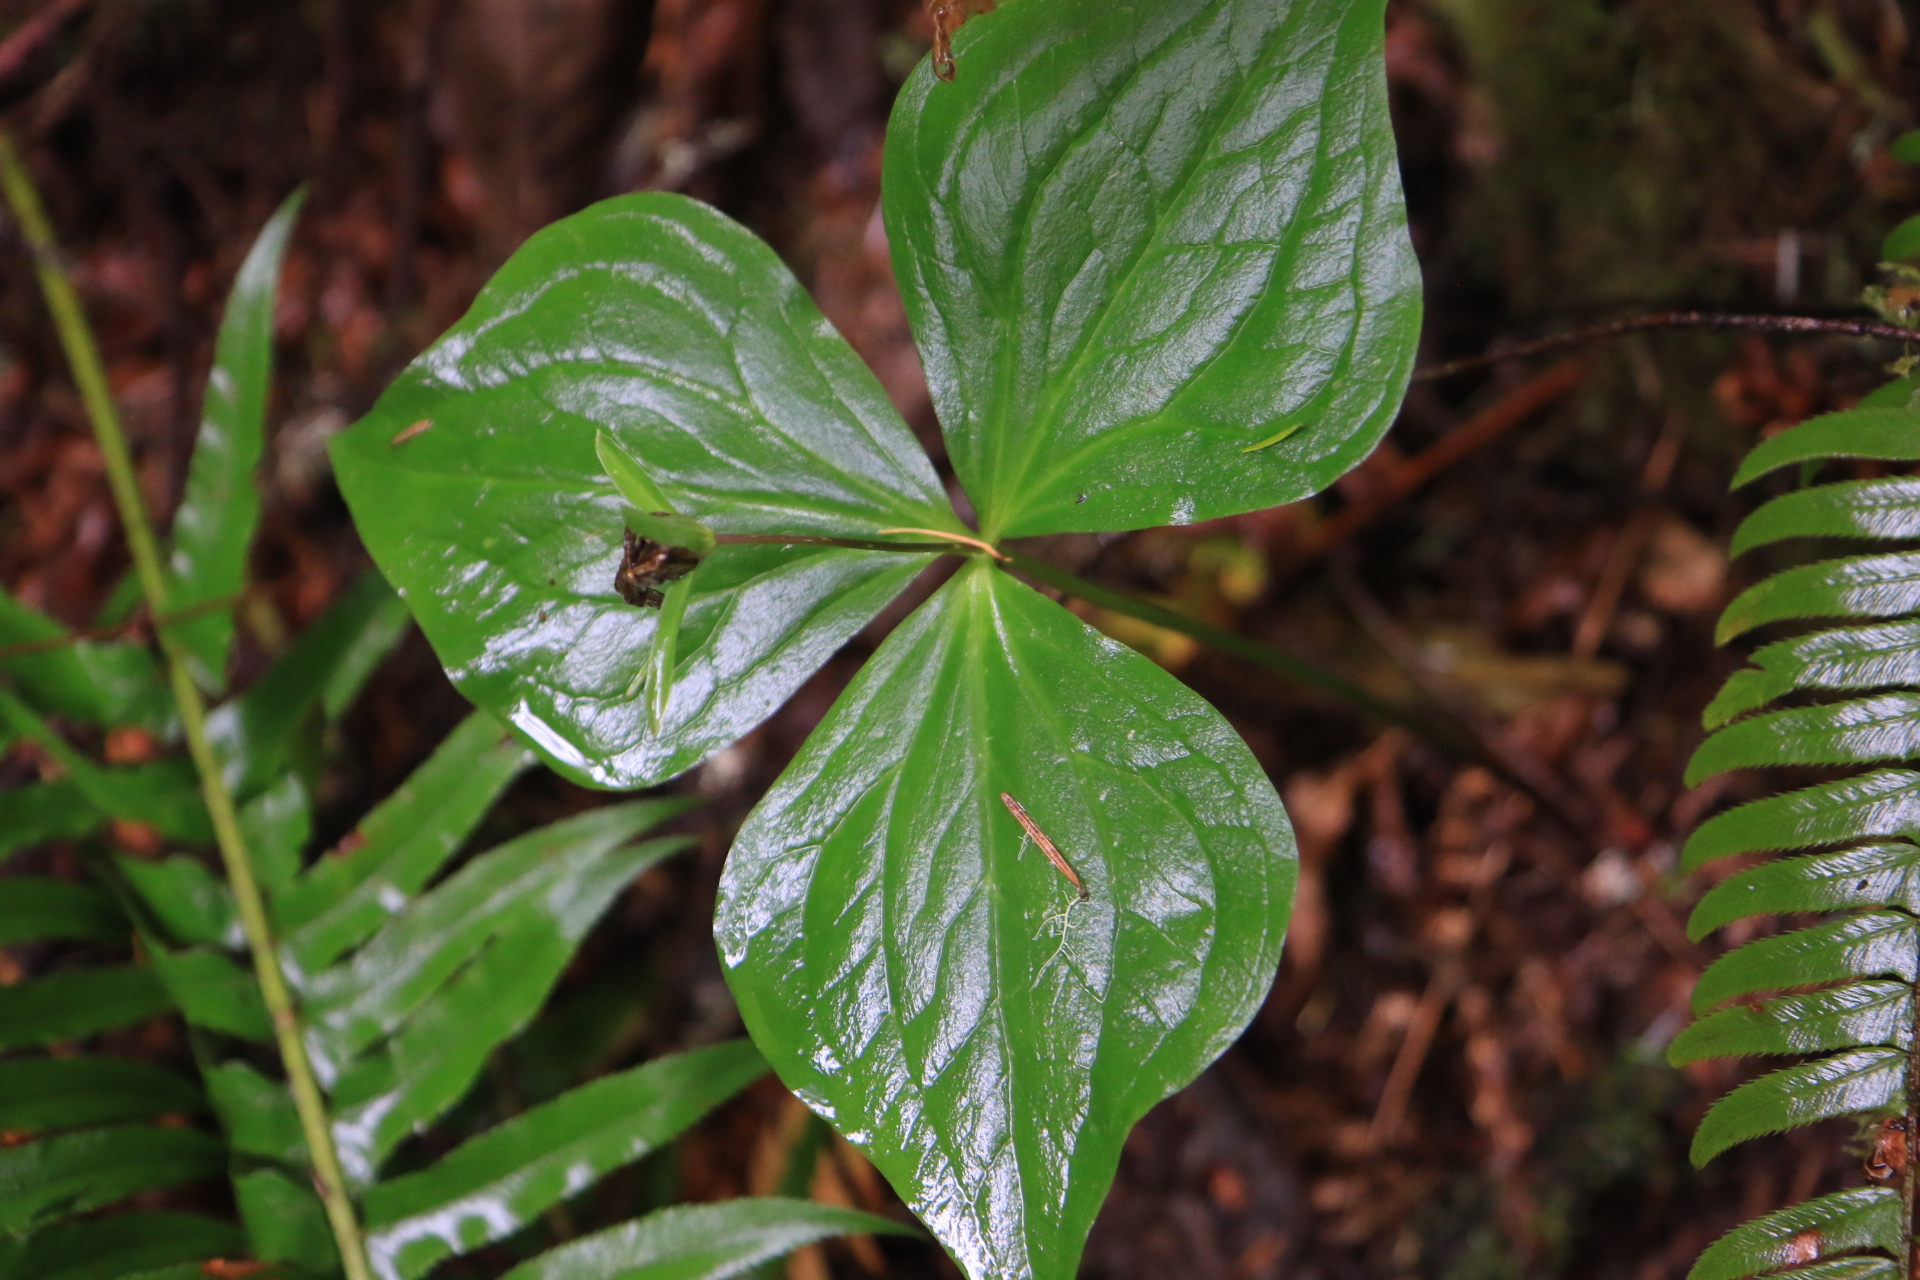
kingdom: Plantae
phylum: Tracheophyta
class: Liliopsida
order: Liliales
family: Melanthiaceae
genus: Trillium
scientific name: Trillium ovatum
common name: Pacific trillium
